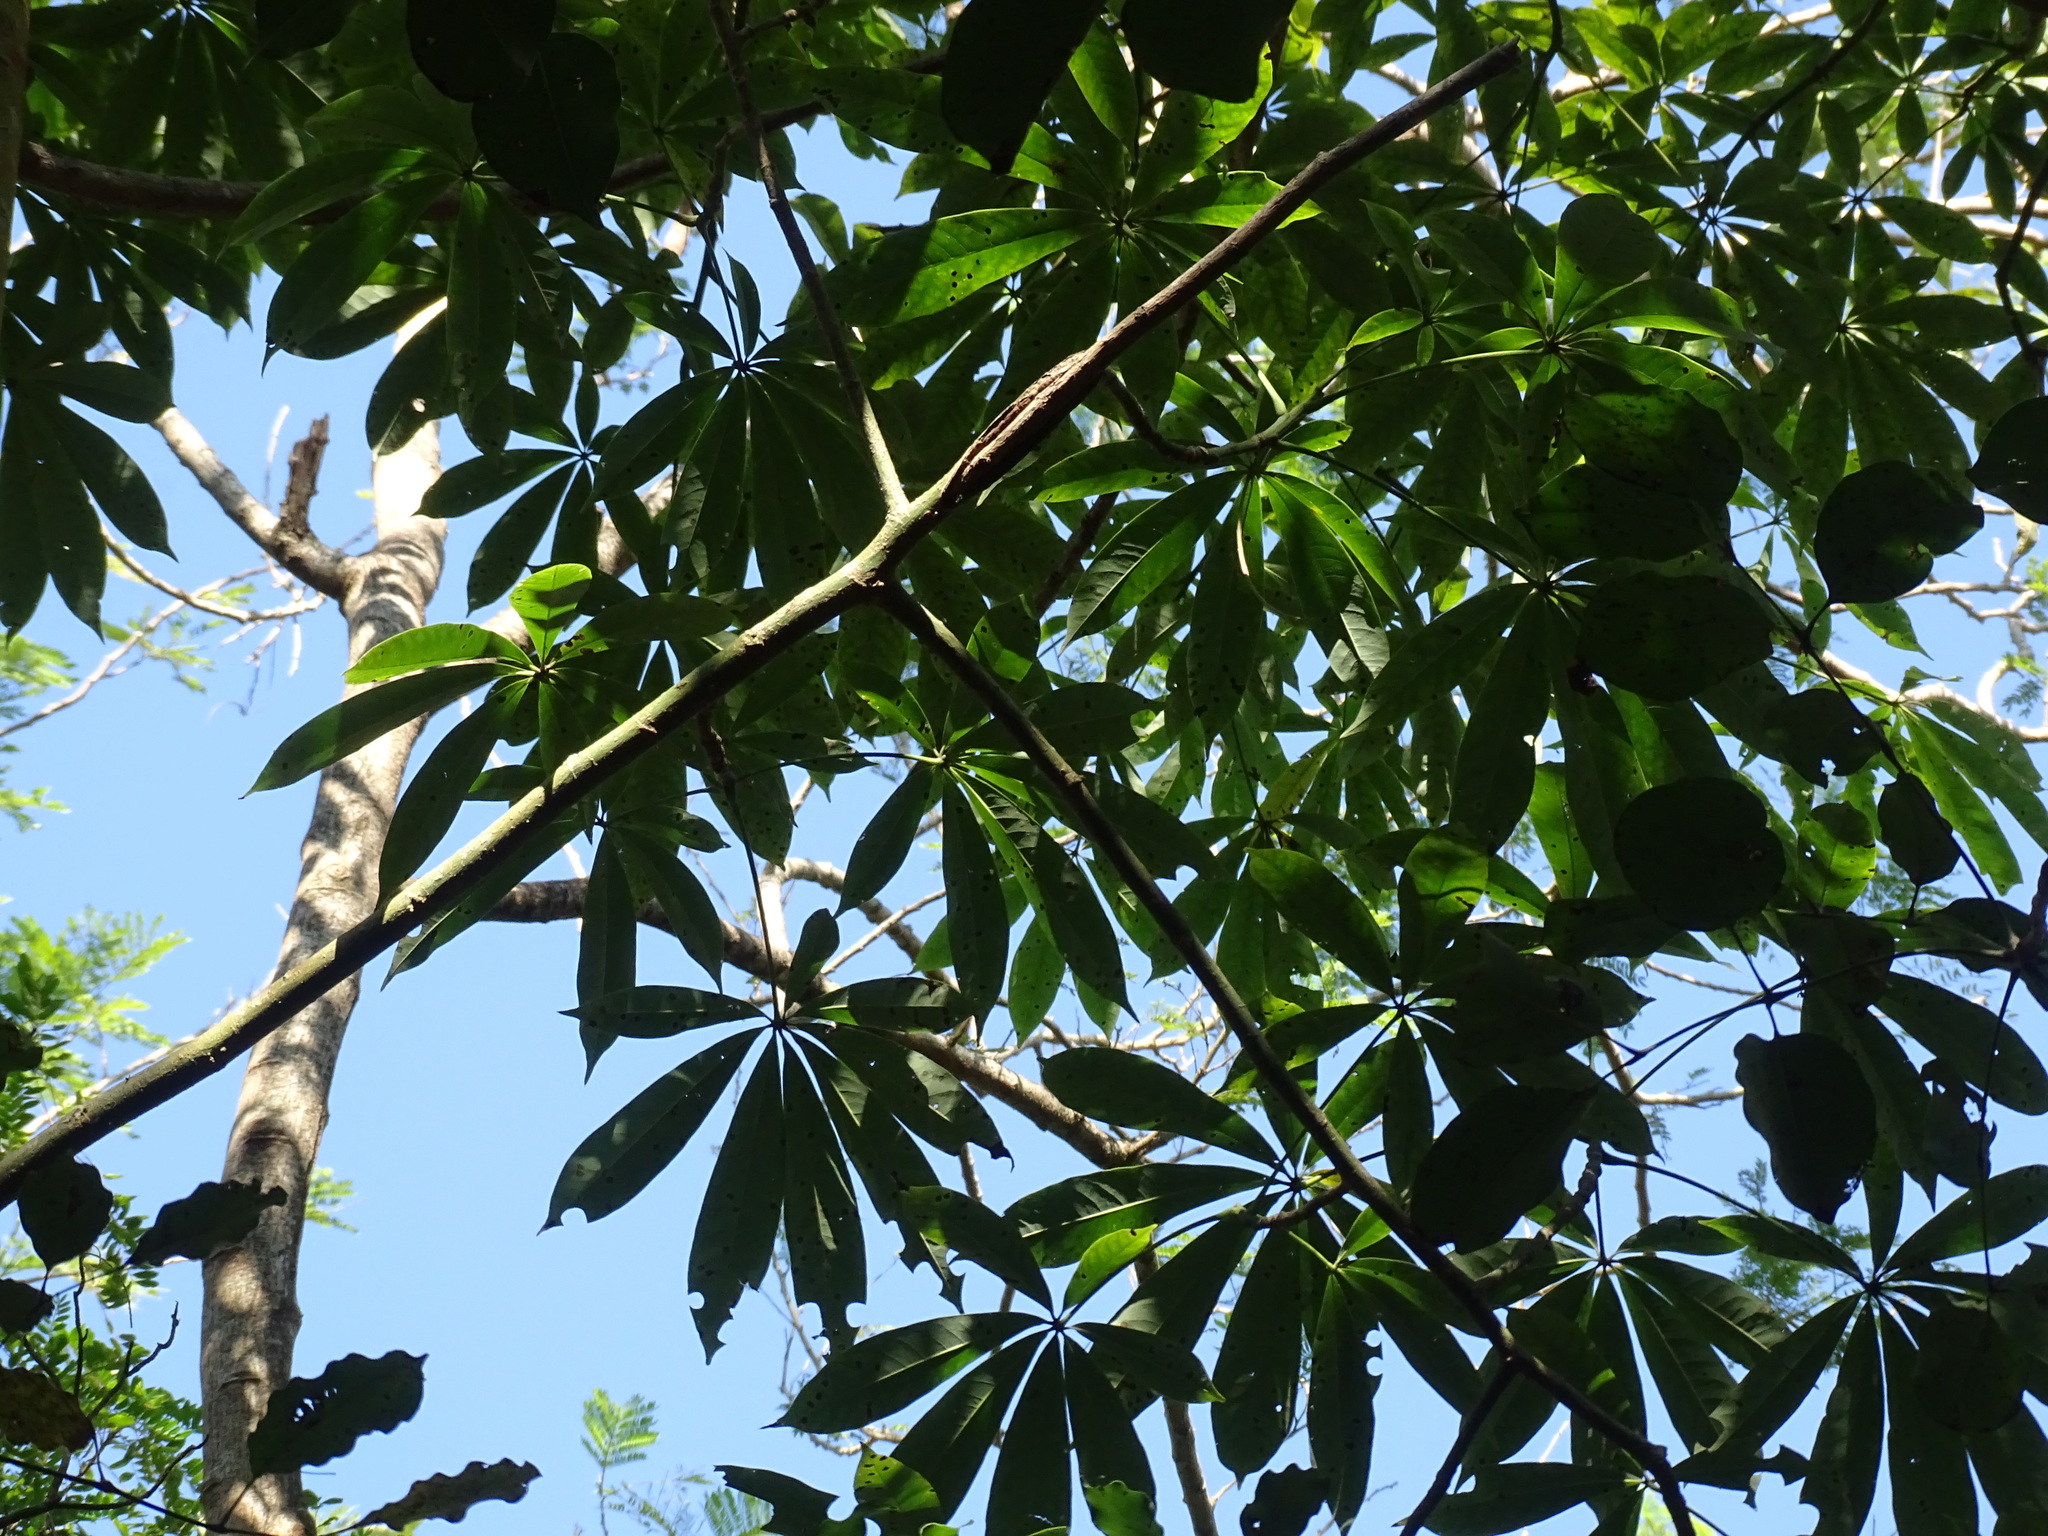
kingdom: Plantae
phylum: Tracheophyta
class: Magnoliopsida
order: Malvales
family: Malvaceae
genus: Ceiba
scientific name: Ceiba pentandra
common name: Kapok
